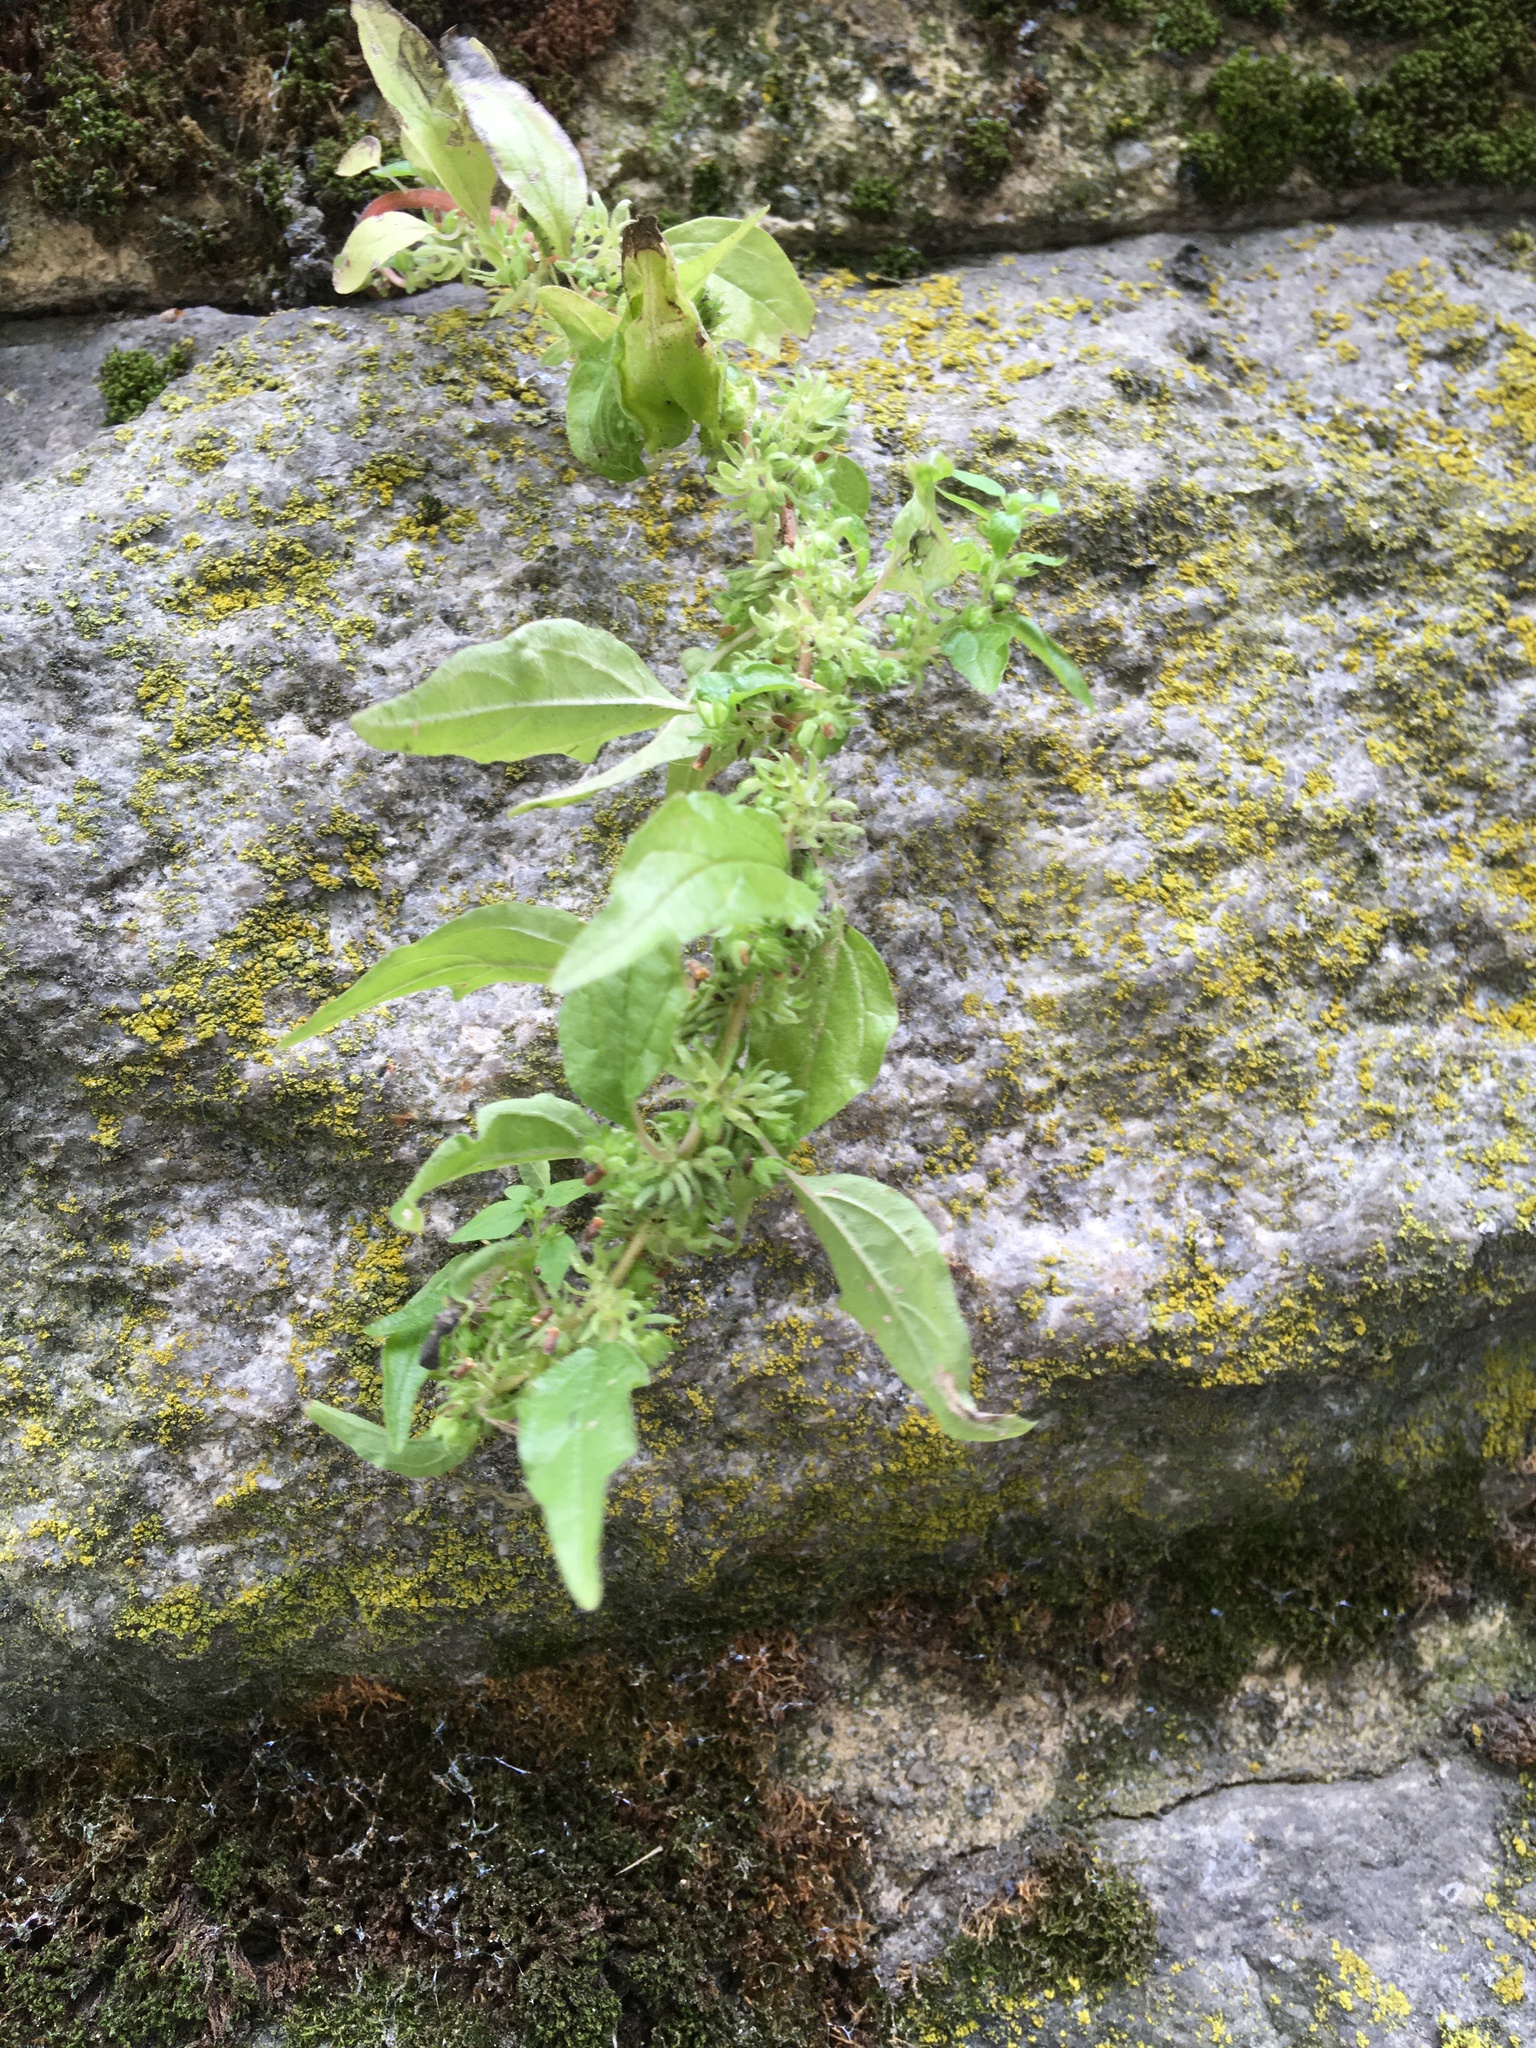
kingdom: Plantae
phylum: Tracheophyta
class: Magnoliopsida
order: Rosales
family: Urticaceae
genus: Parietaria
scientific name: Parietaria pensylvanica
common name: Pennsylvania pellitory
